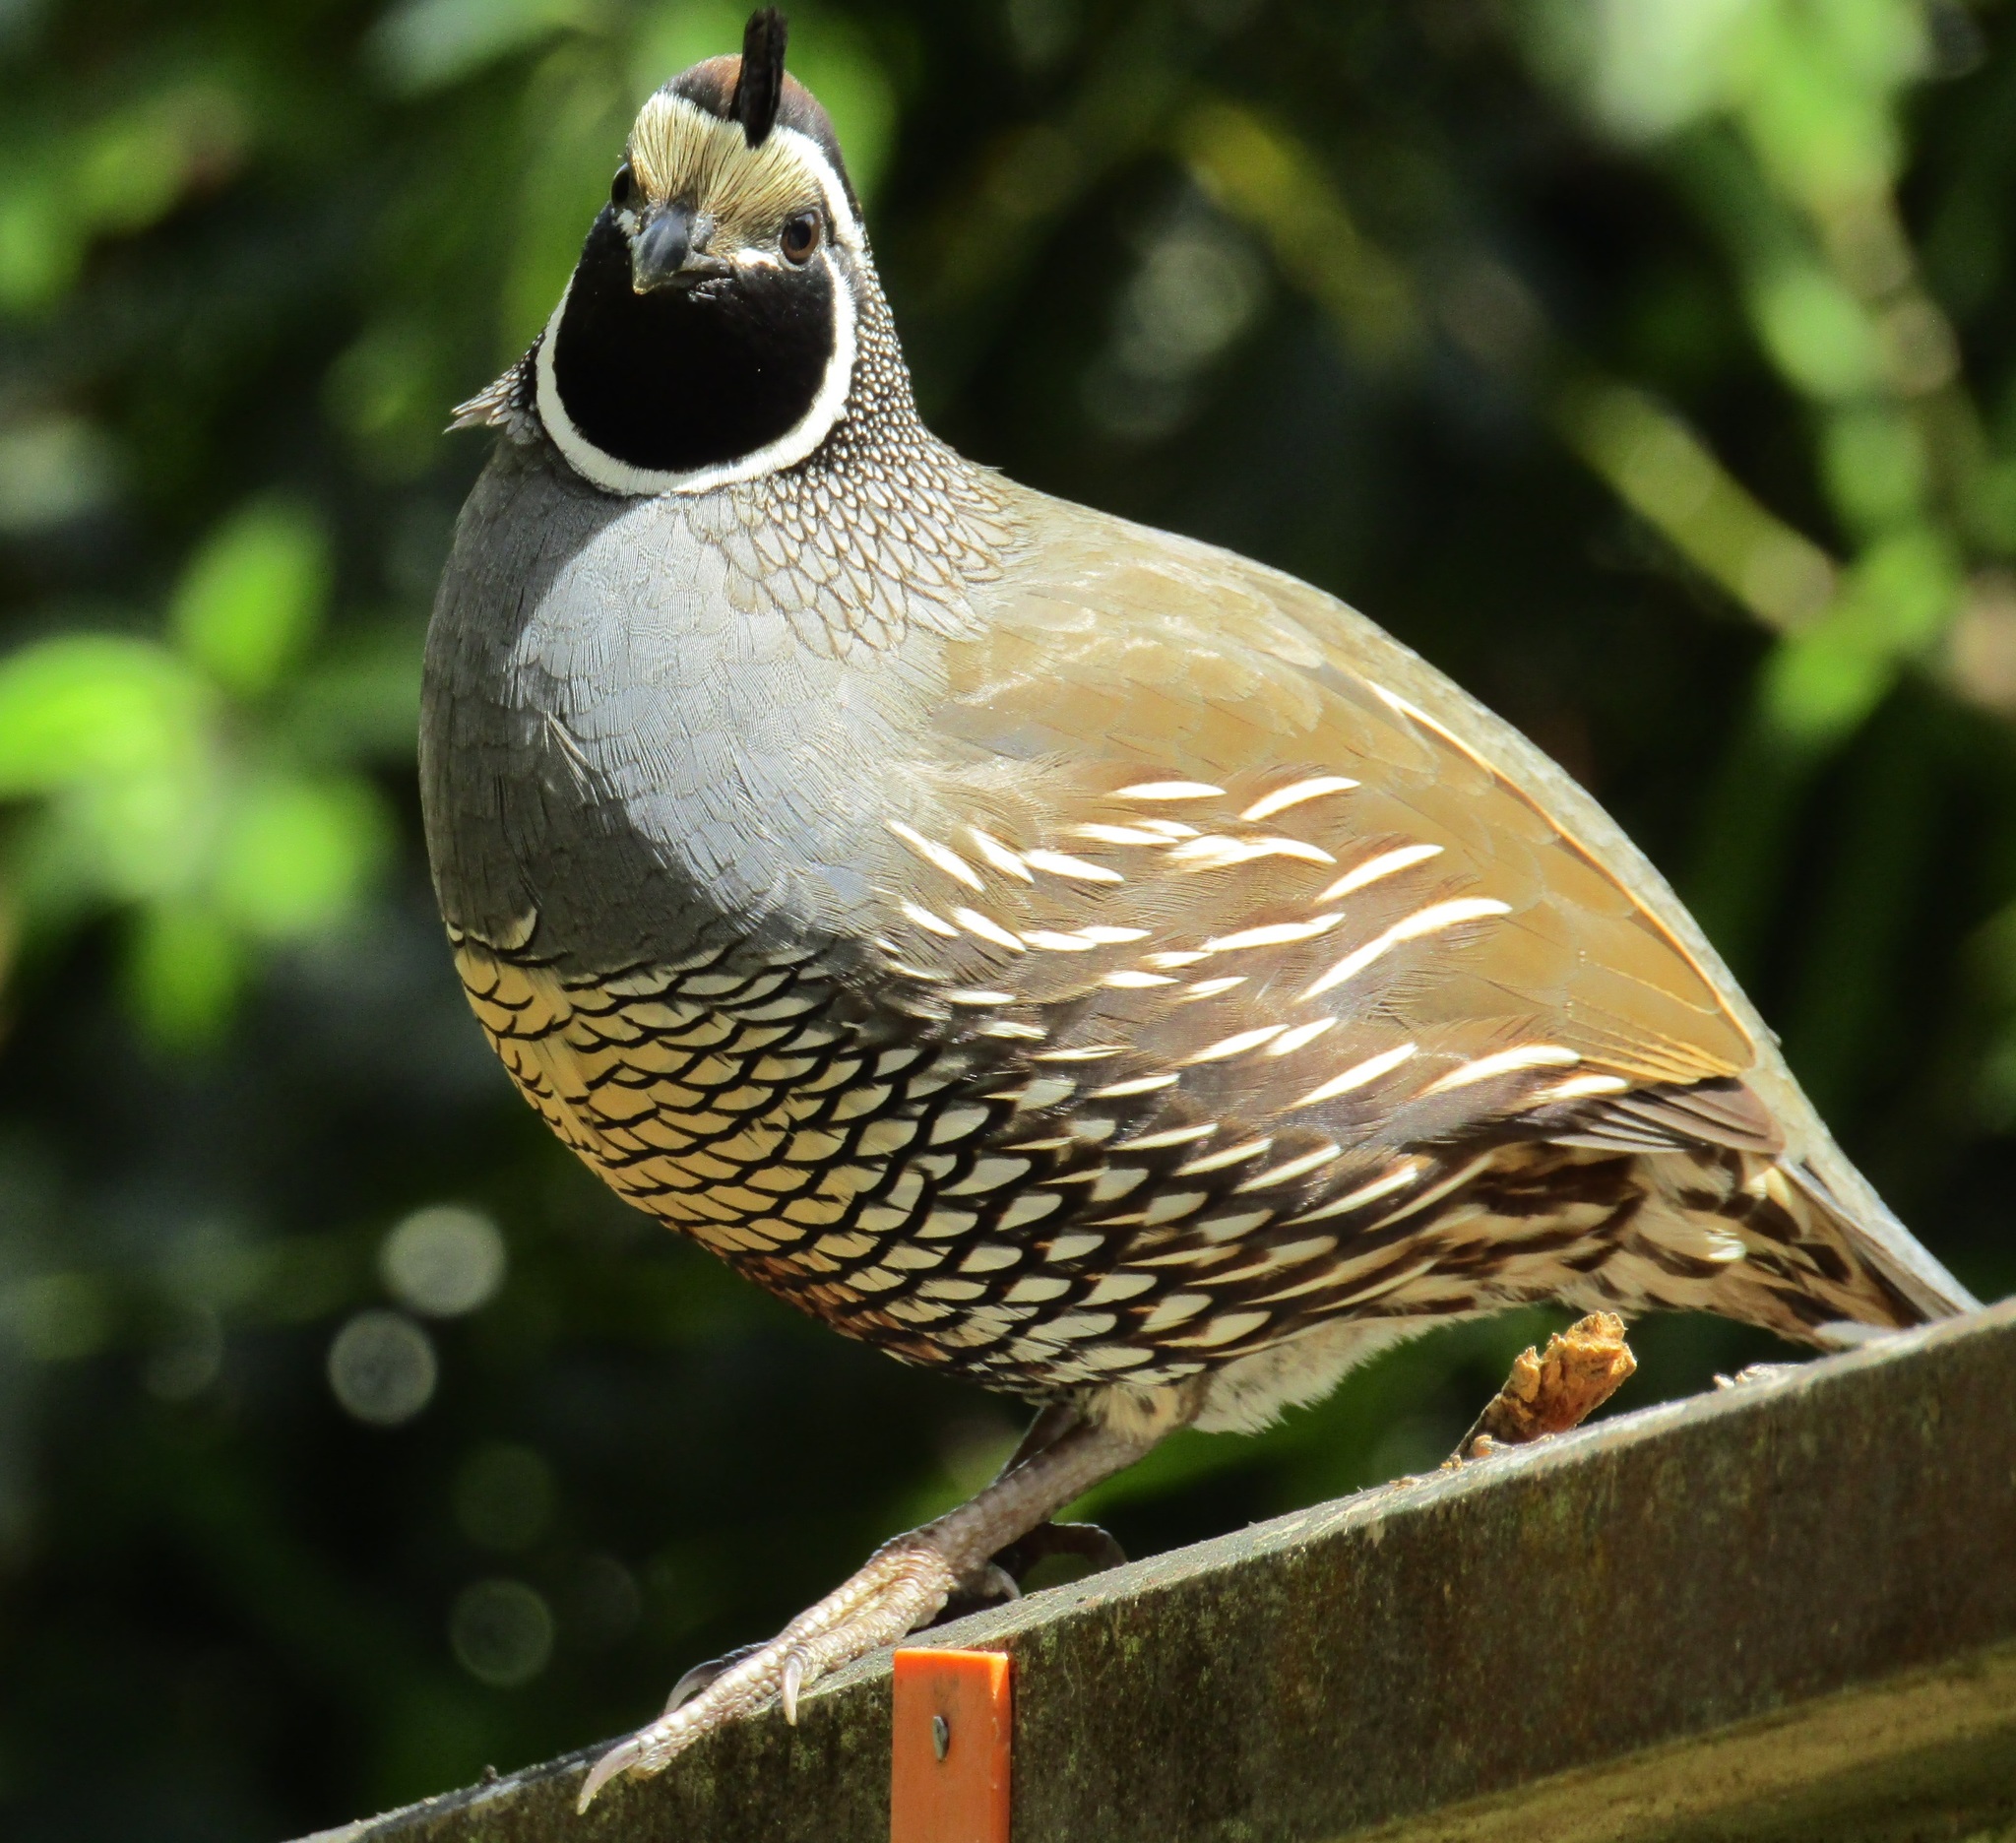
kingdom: Animalia
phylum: Chordata
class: Aves
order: Galliformes
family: Odontophoridae
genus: Callipepla
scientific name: Callipepla californica
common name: California quail
